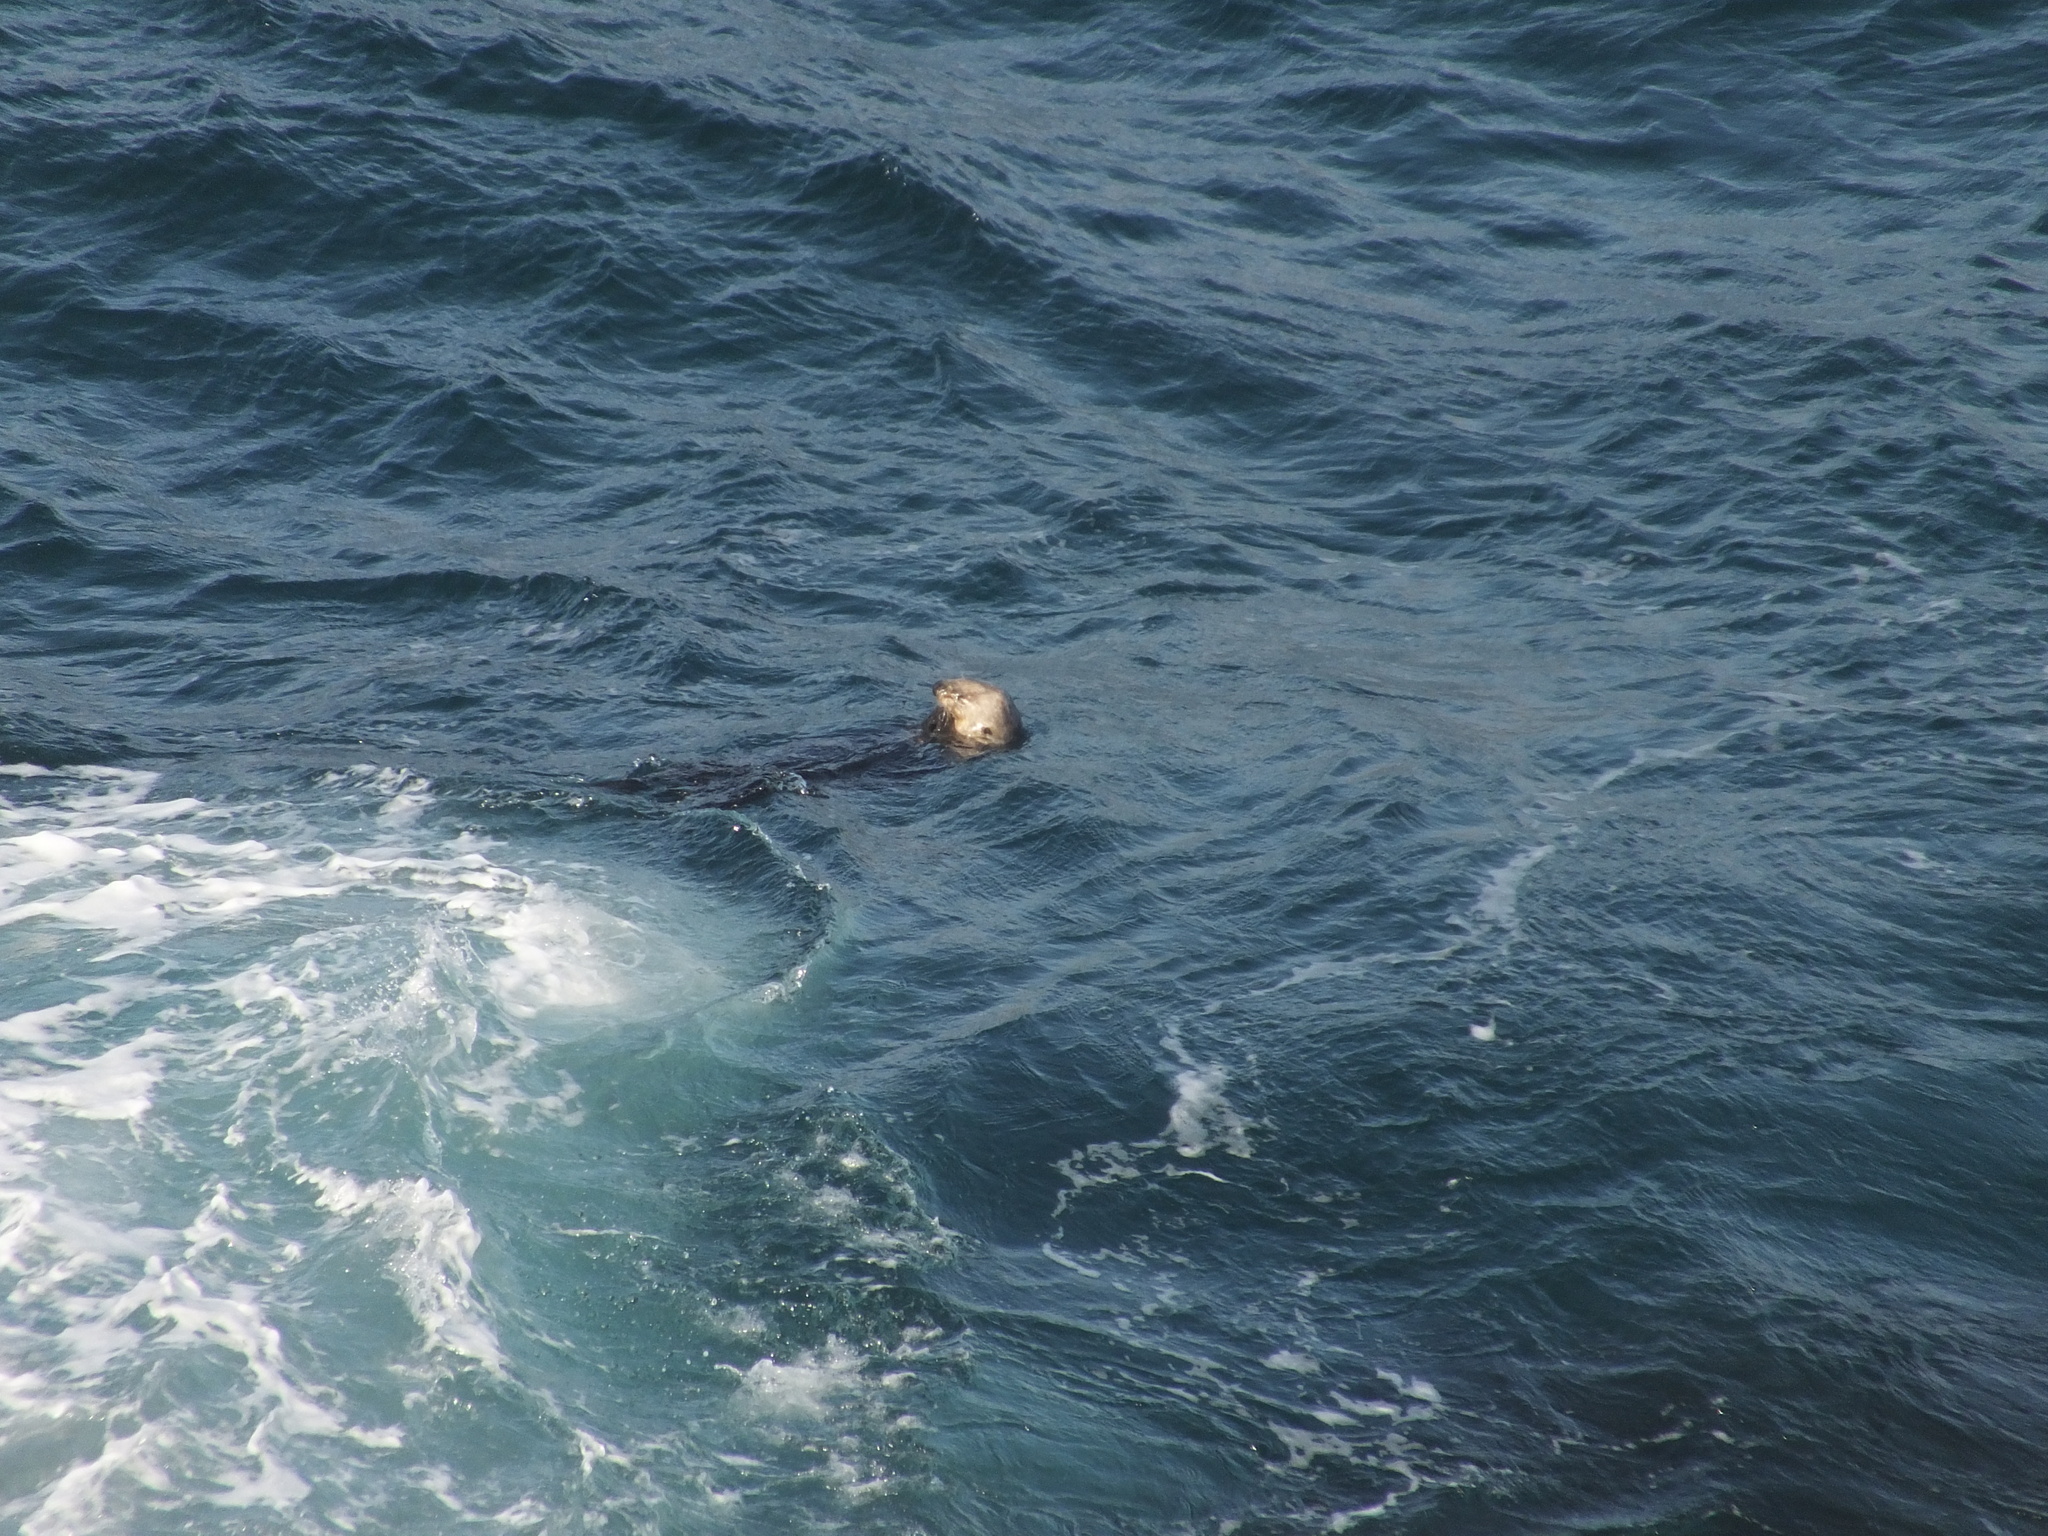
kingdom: Animalia
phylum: Chordata
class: Mammalia
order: Carnivora
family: Mustelidae
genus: Enhydra
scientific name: Enhydra lutris
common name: Sea otter
